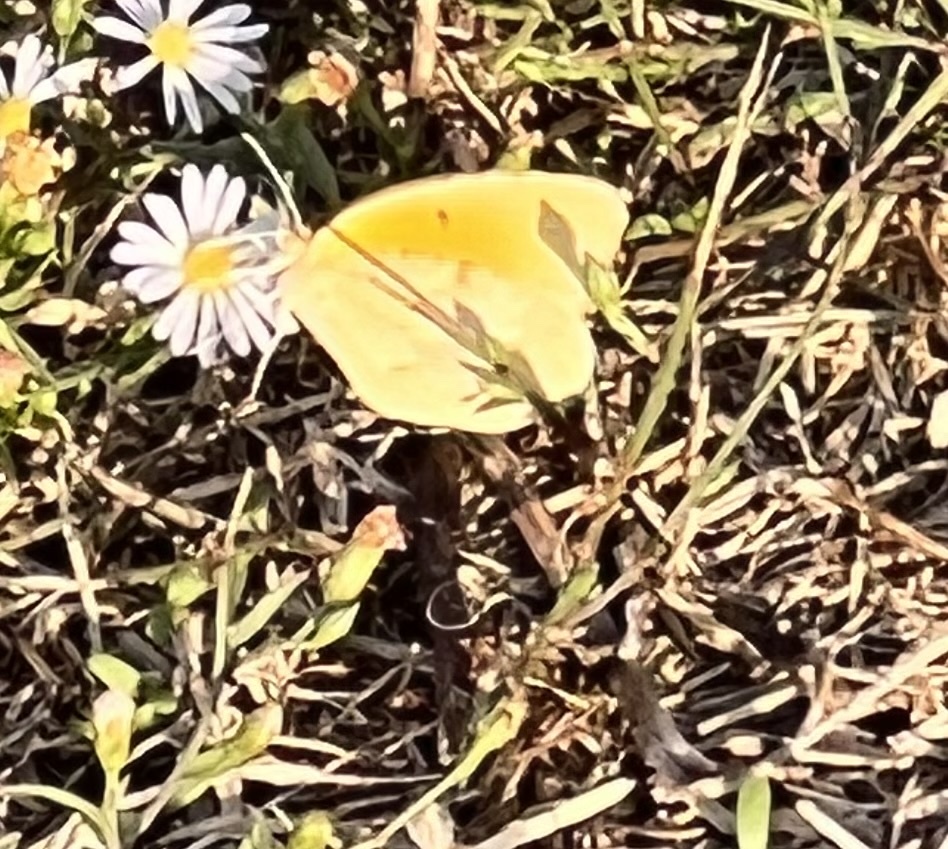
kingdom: Animalia
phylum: Arthropoda
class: Insecta
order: Lepidoptera
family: Pieridae
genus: Abaeis
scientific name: Abaeis nicippe
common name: Sleepy orange
